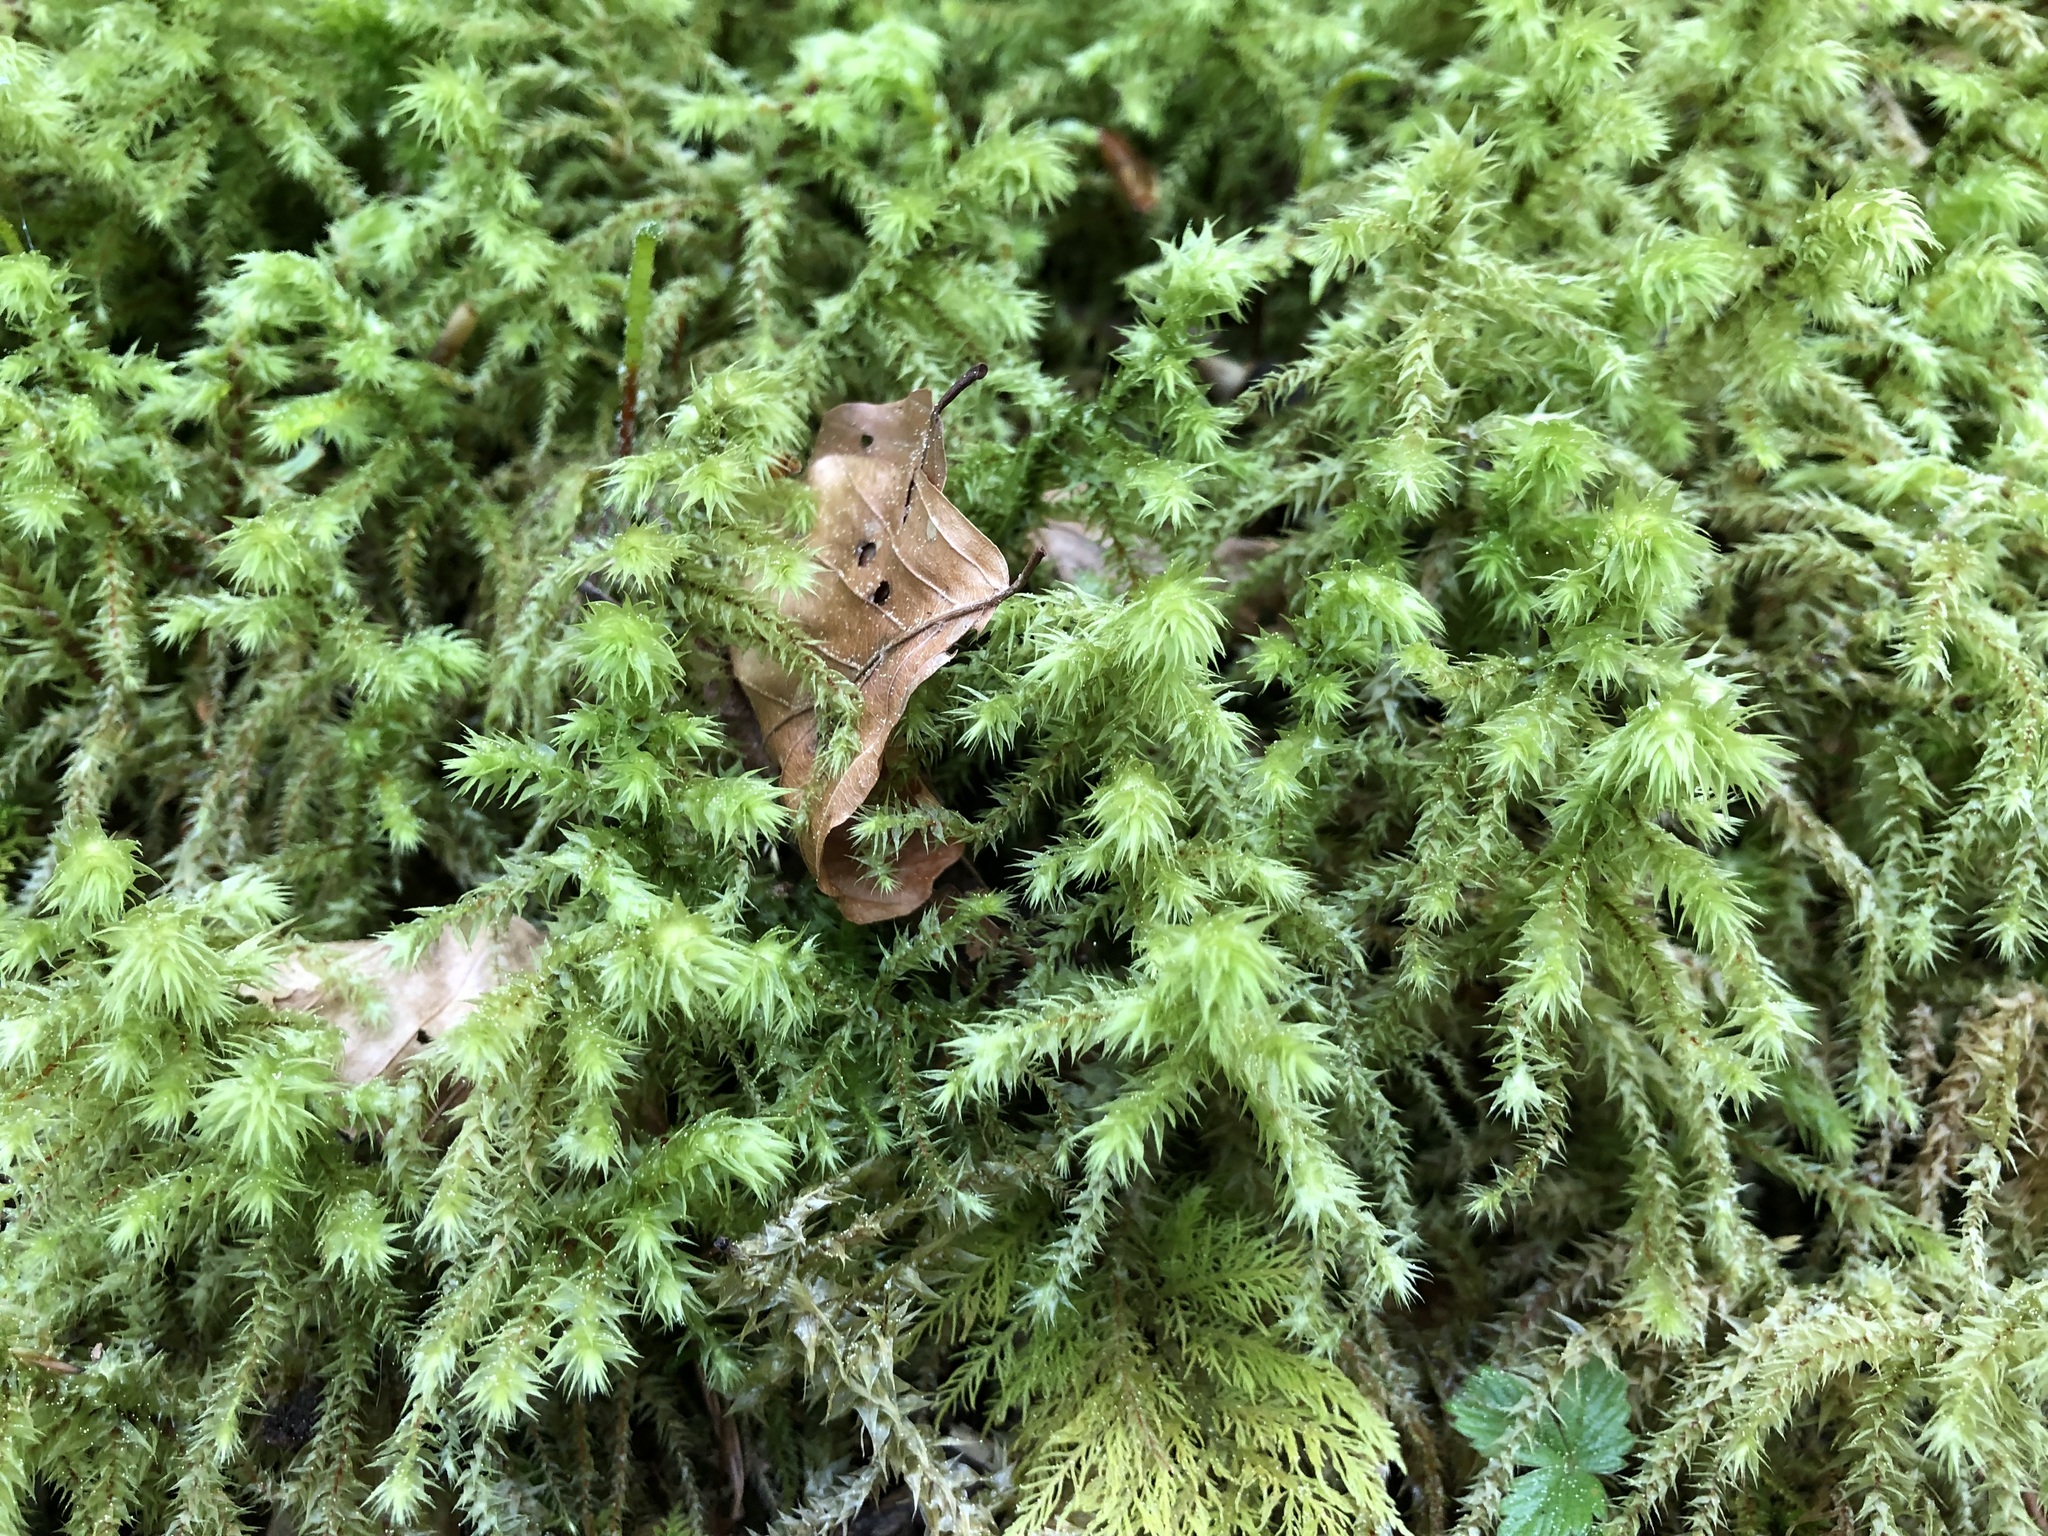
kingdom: Plantae
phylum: Bryophyta
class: Bryopsida
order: Hypnales
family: Hylocomiaceae
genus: Hylocomiadelphus
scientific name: Hylocomiadelphus triquetrus
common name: Rough goose neck moss
